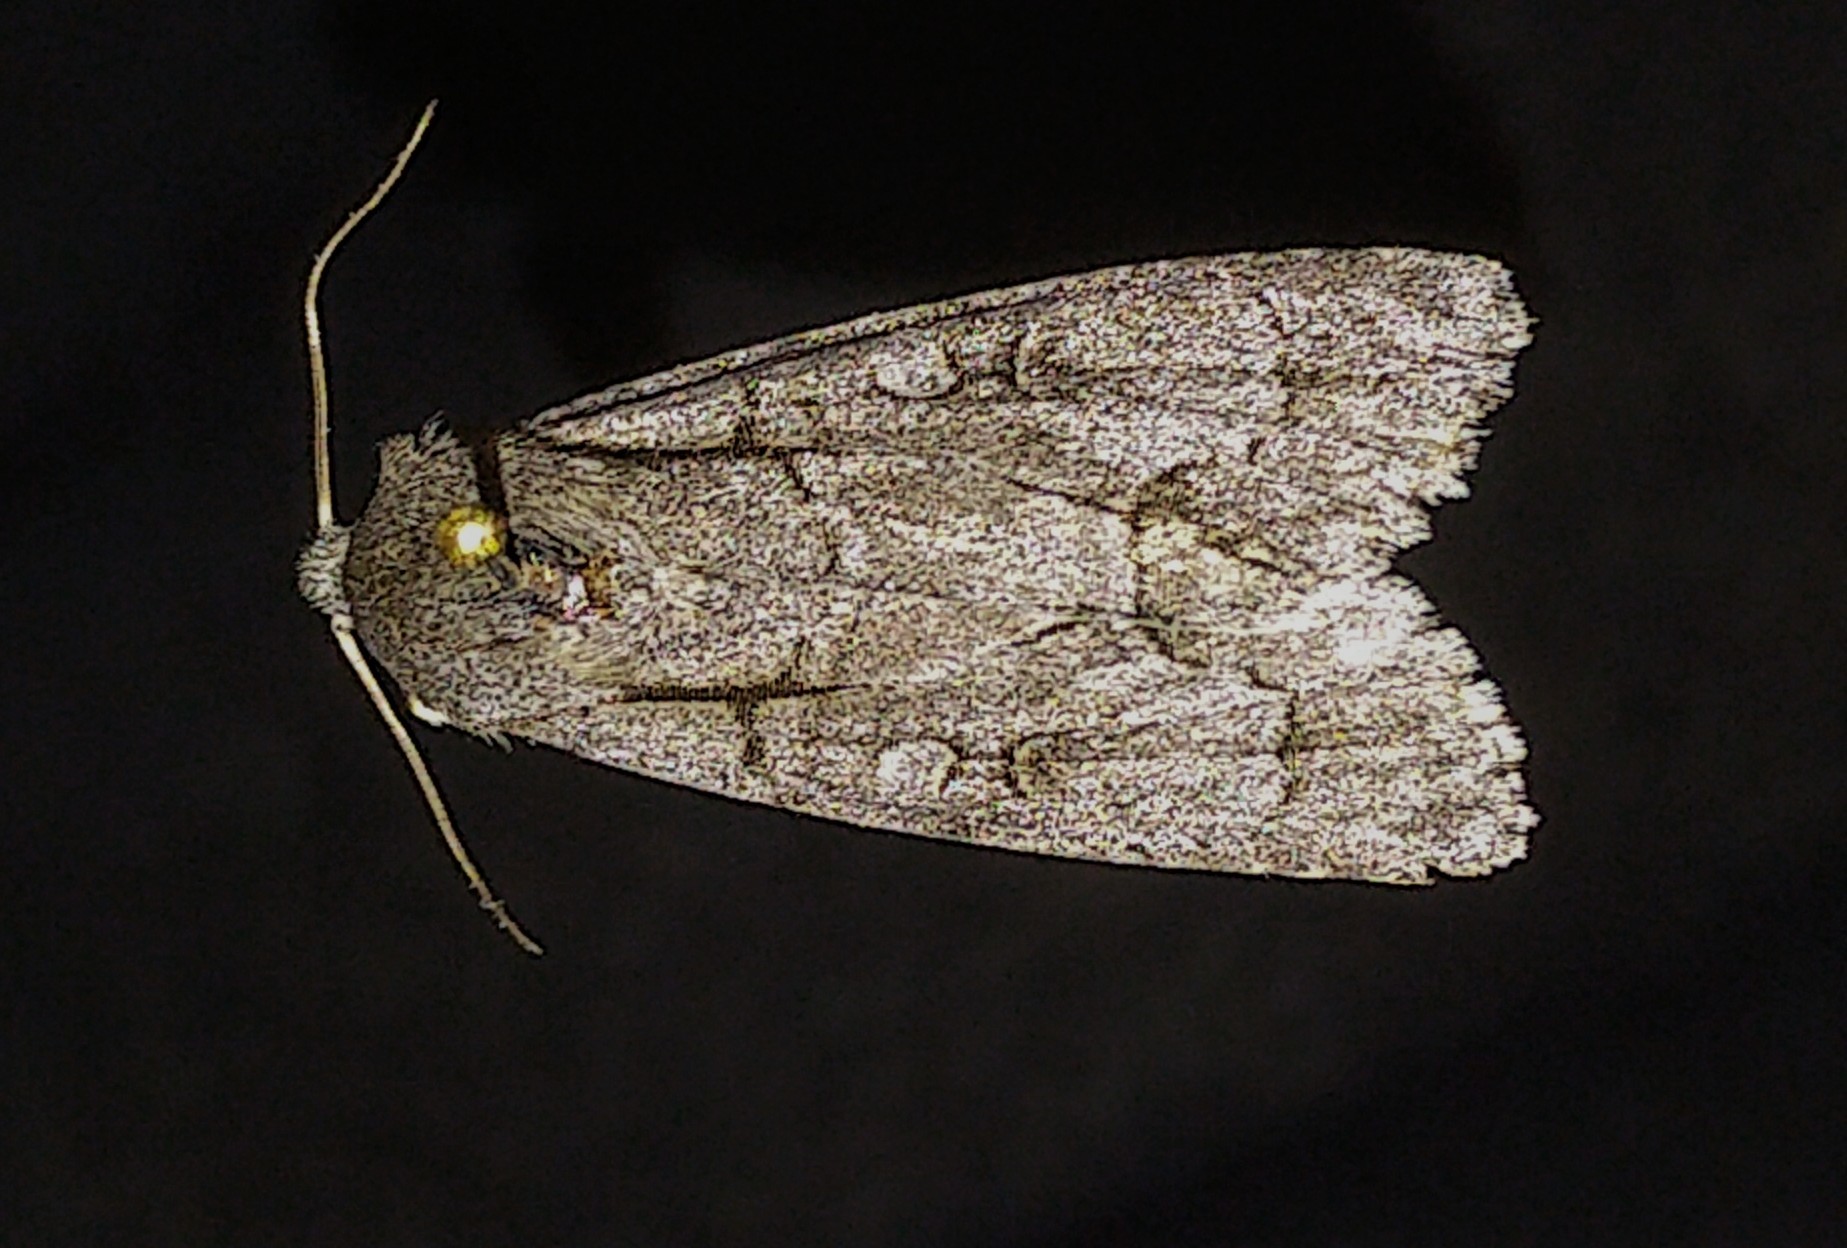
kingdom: Animalia
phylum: Arthropoda
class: Insecta
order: Lepidoptera
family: Noctuidae
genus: Acronicta
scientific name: Acronicta radcliffei
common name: Radcliffe's dagger
